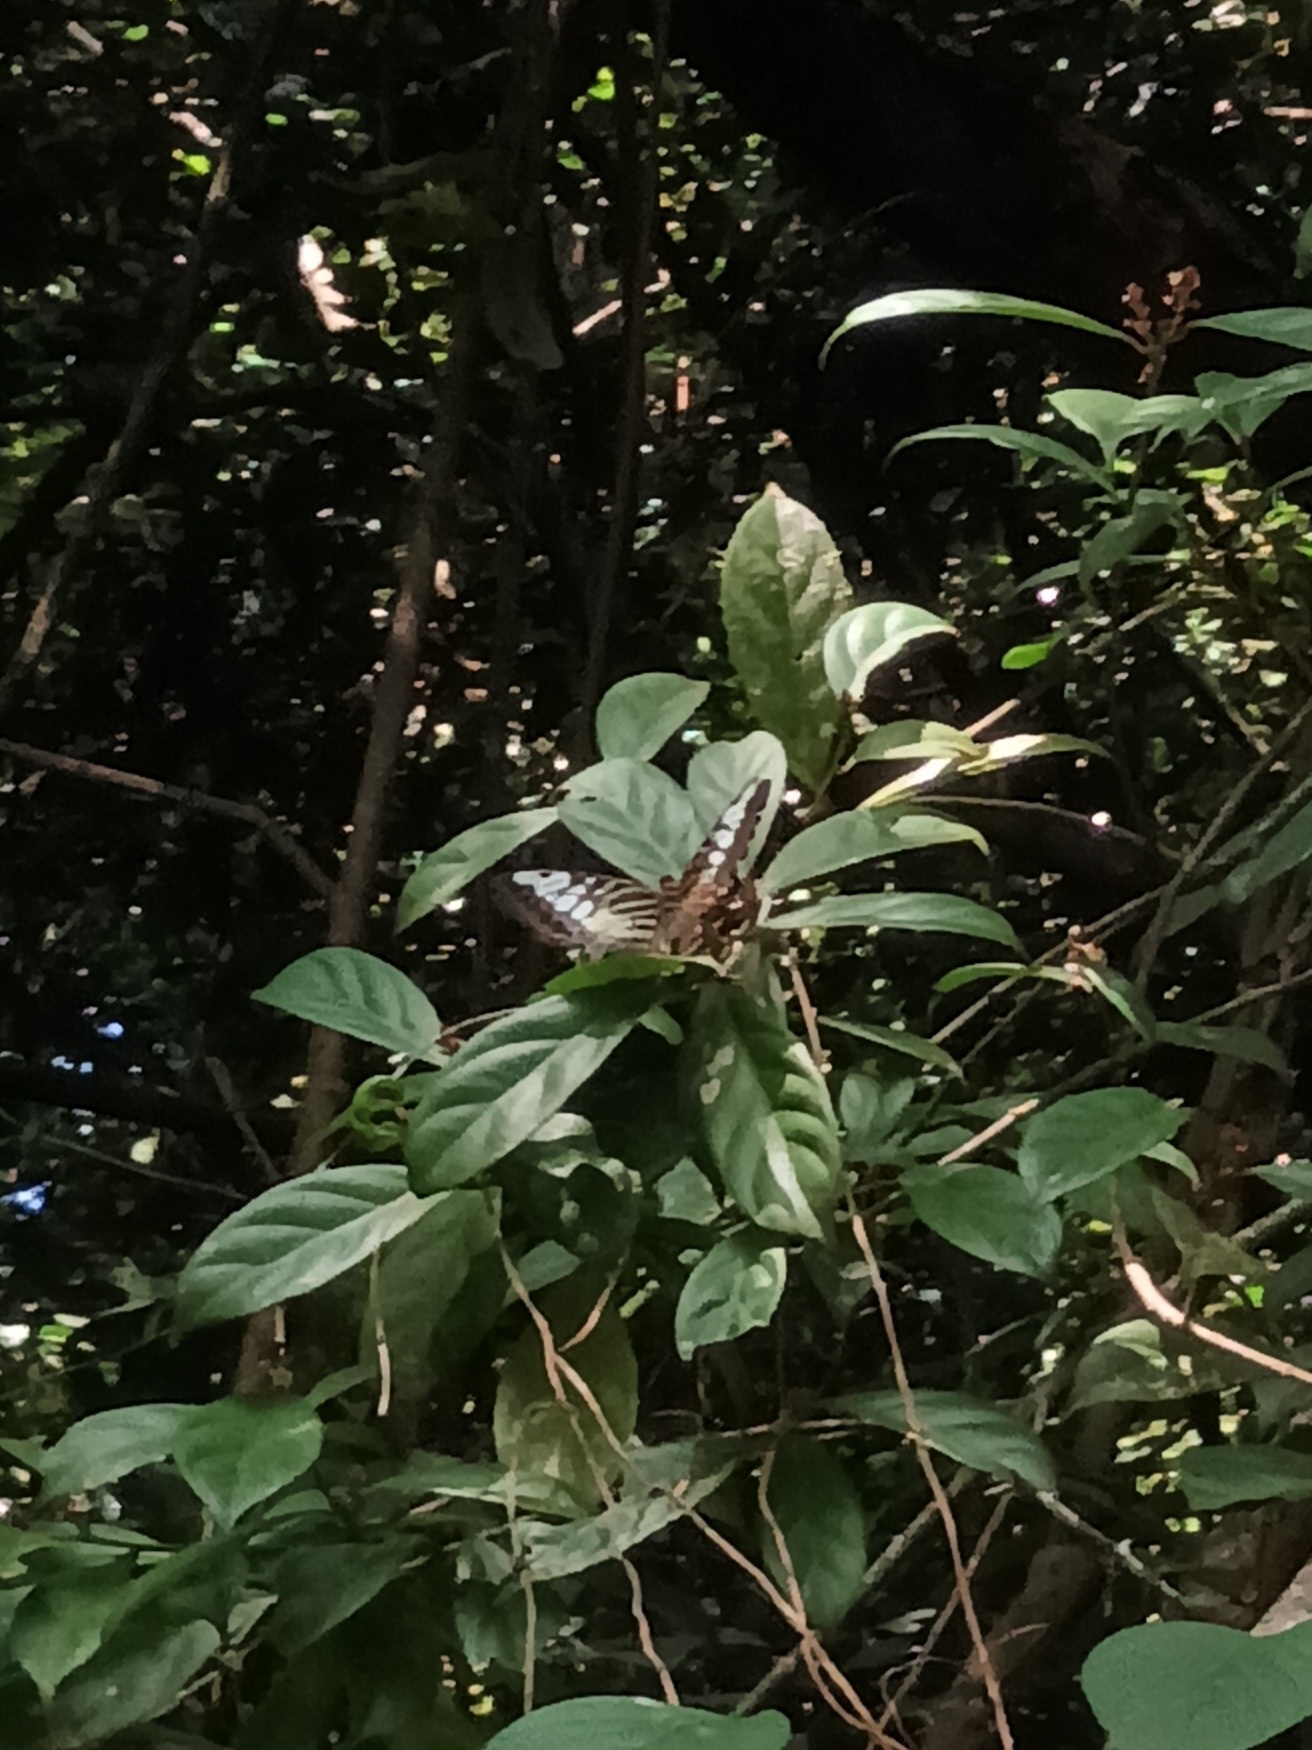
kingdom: Animalia
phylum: Arthropoda
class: Insecta
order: Lepidoptera
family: Nymphalidae
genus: Kallima
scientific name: Kallima sylvia
